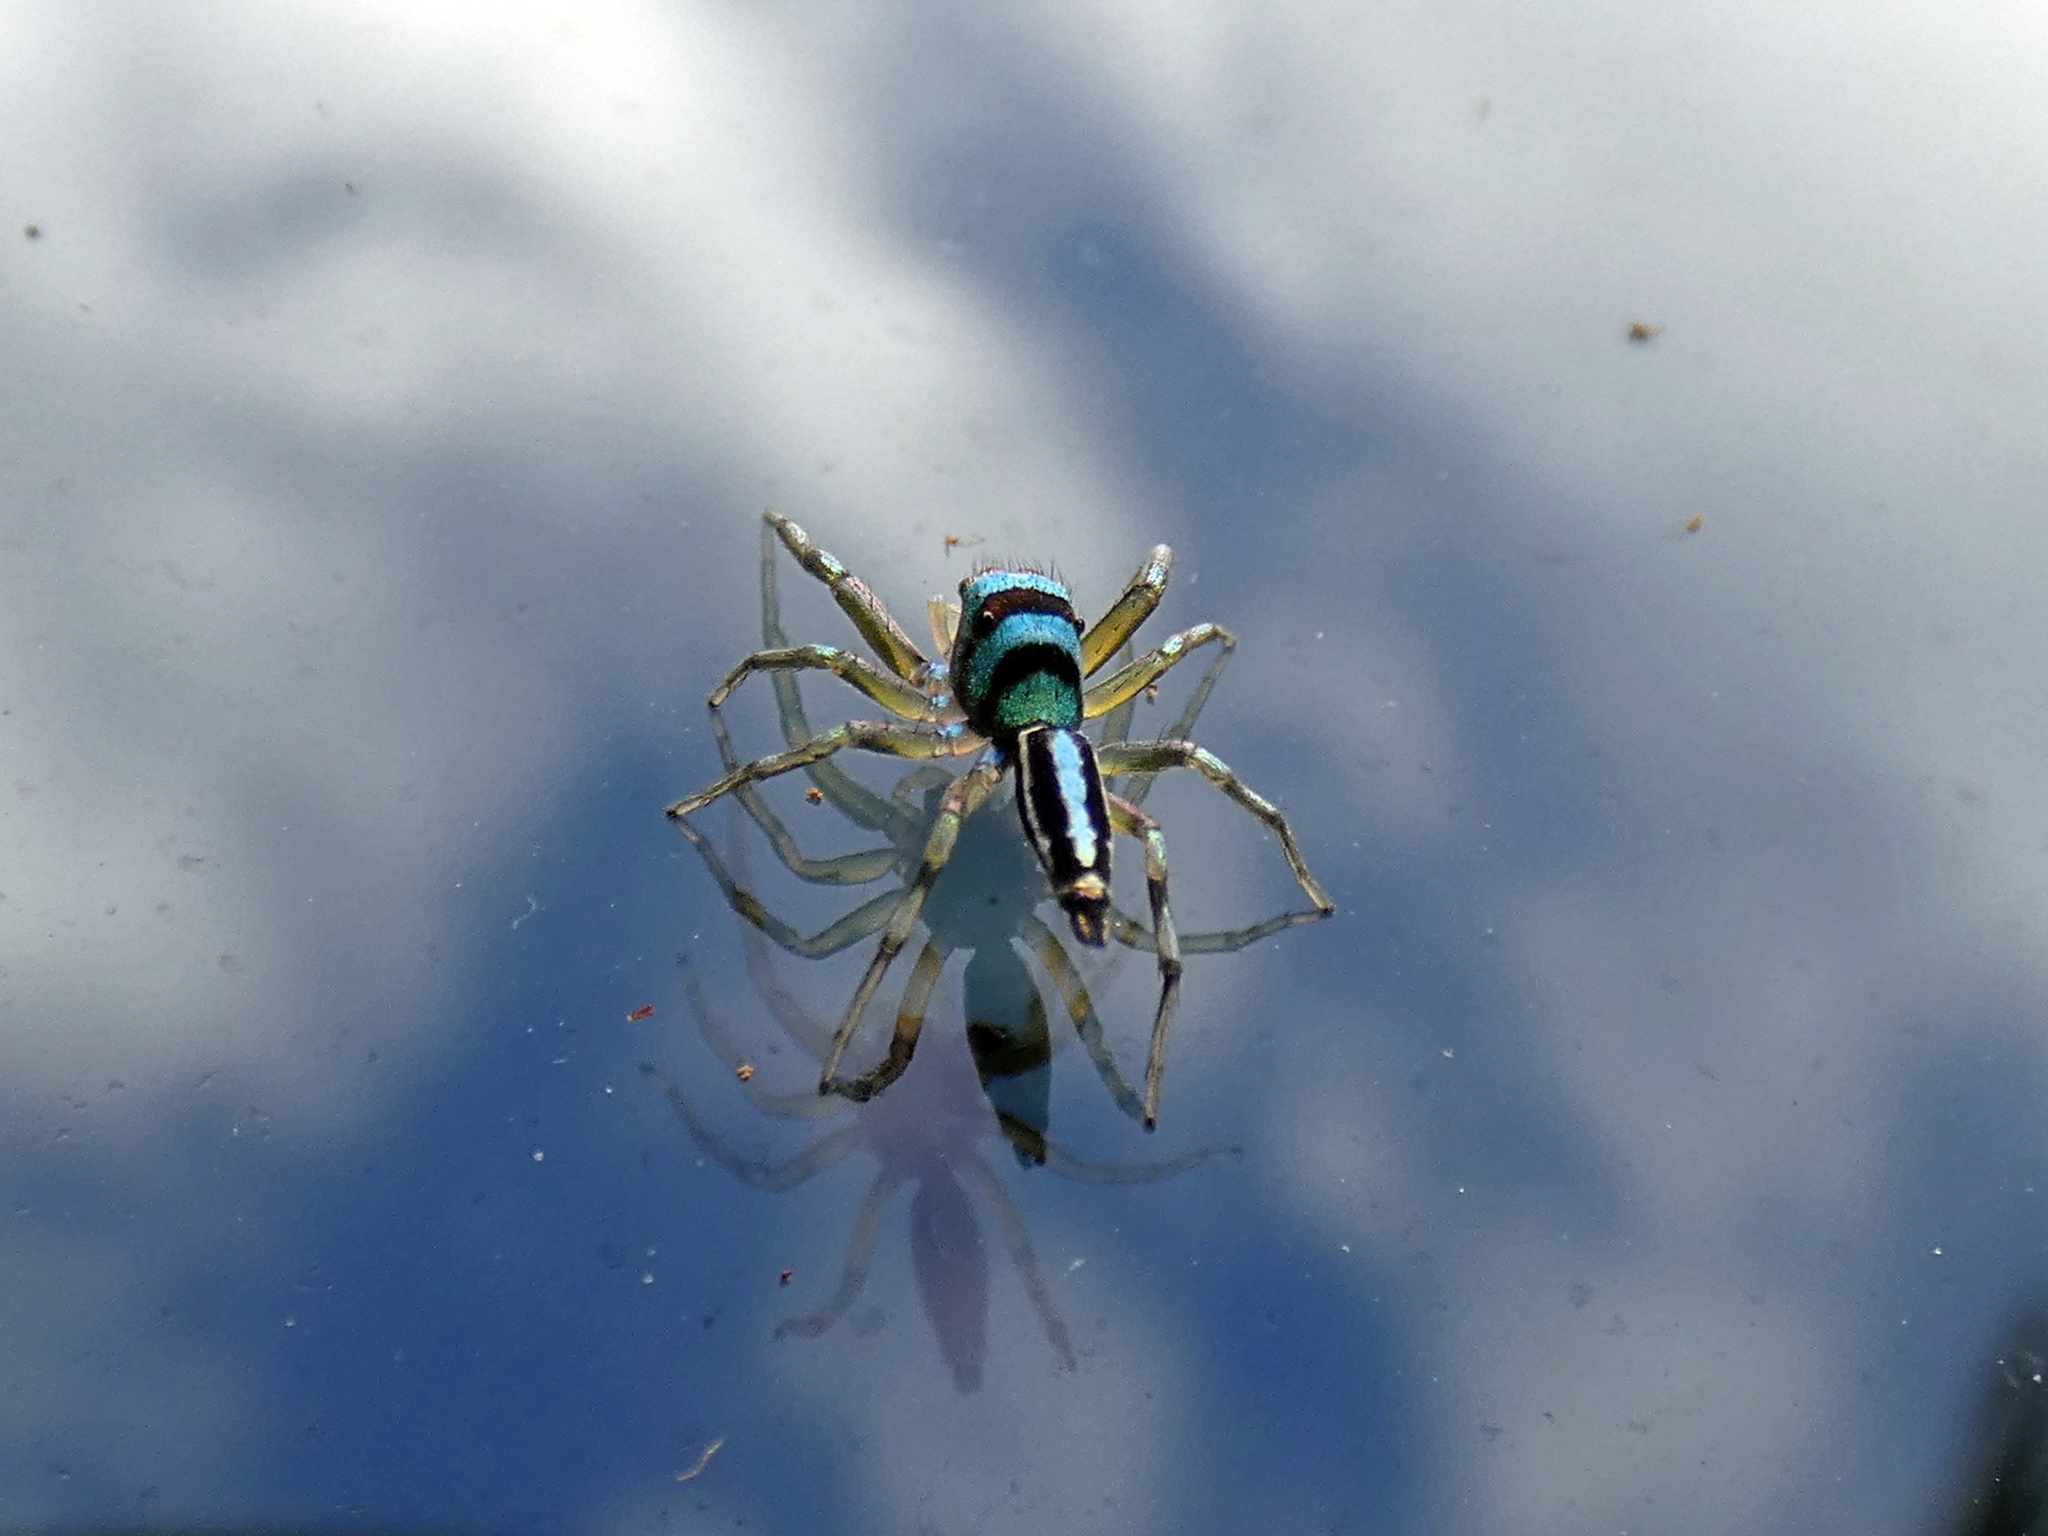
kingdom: Animalia
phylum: Arthropoda
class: Arachnida
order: Araneae
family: Salticidae
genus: Cosmophasis
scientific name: Cosmophasis micarioides
